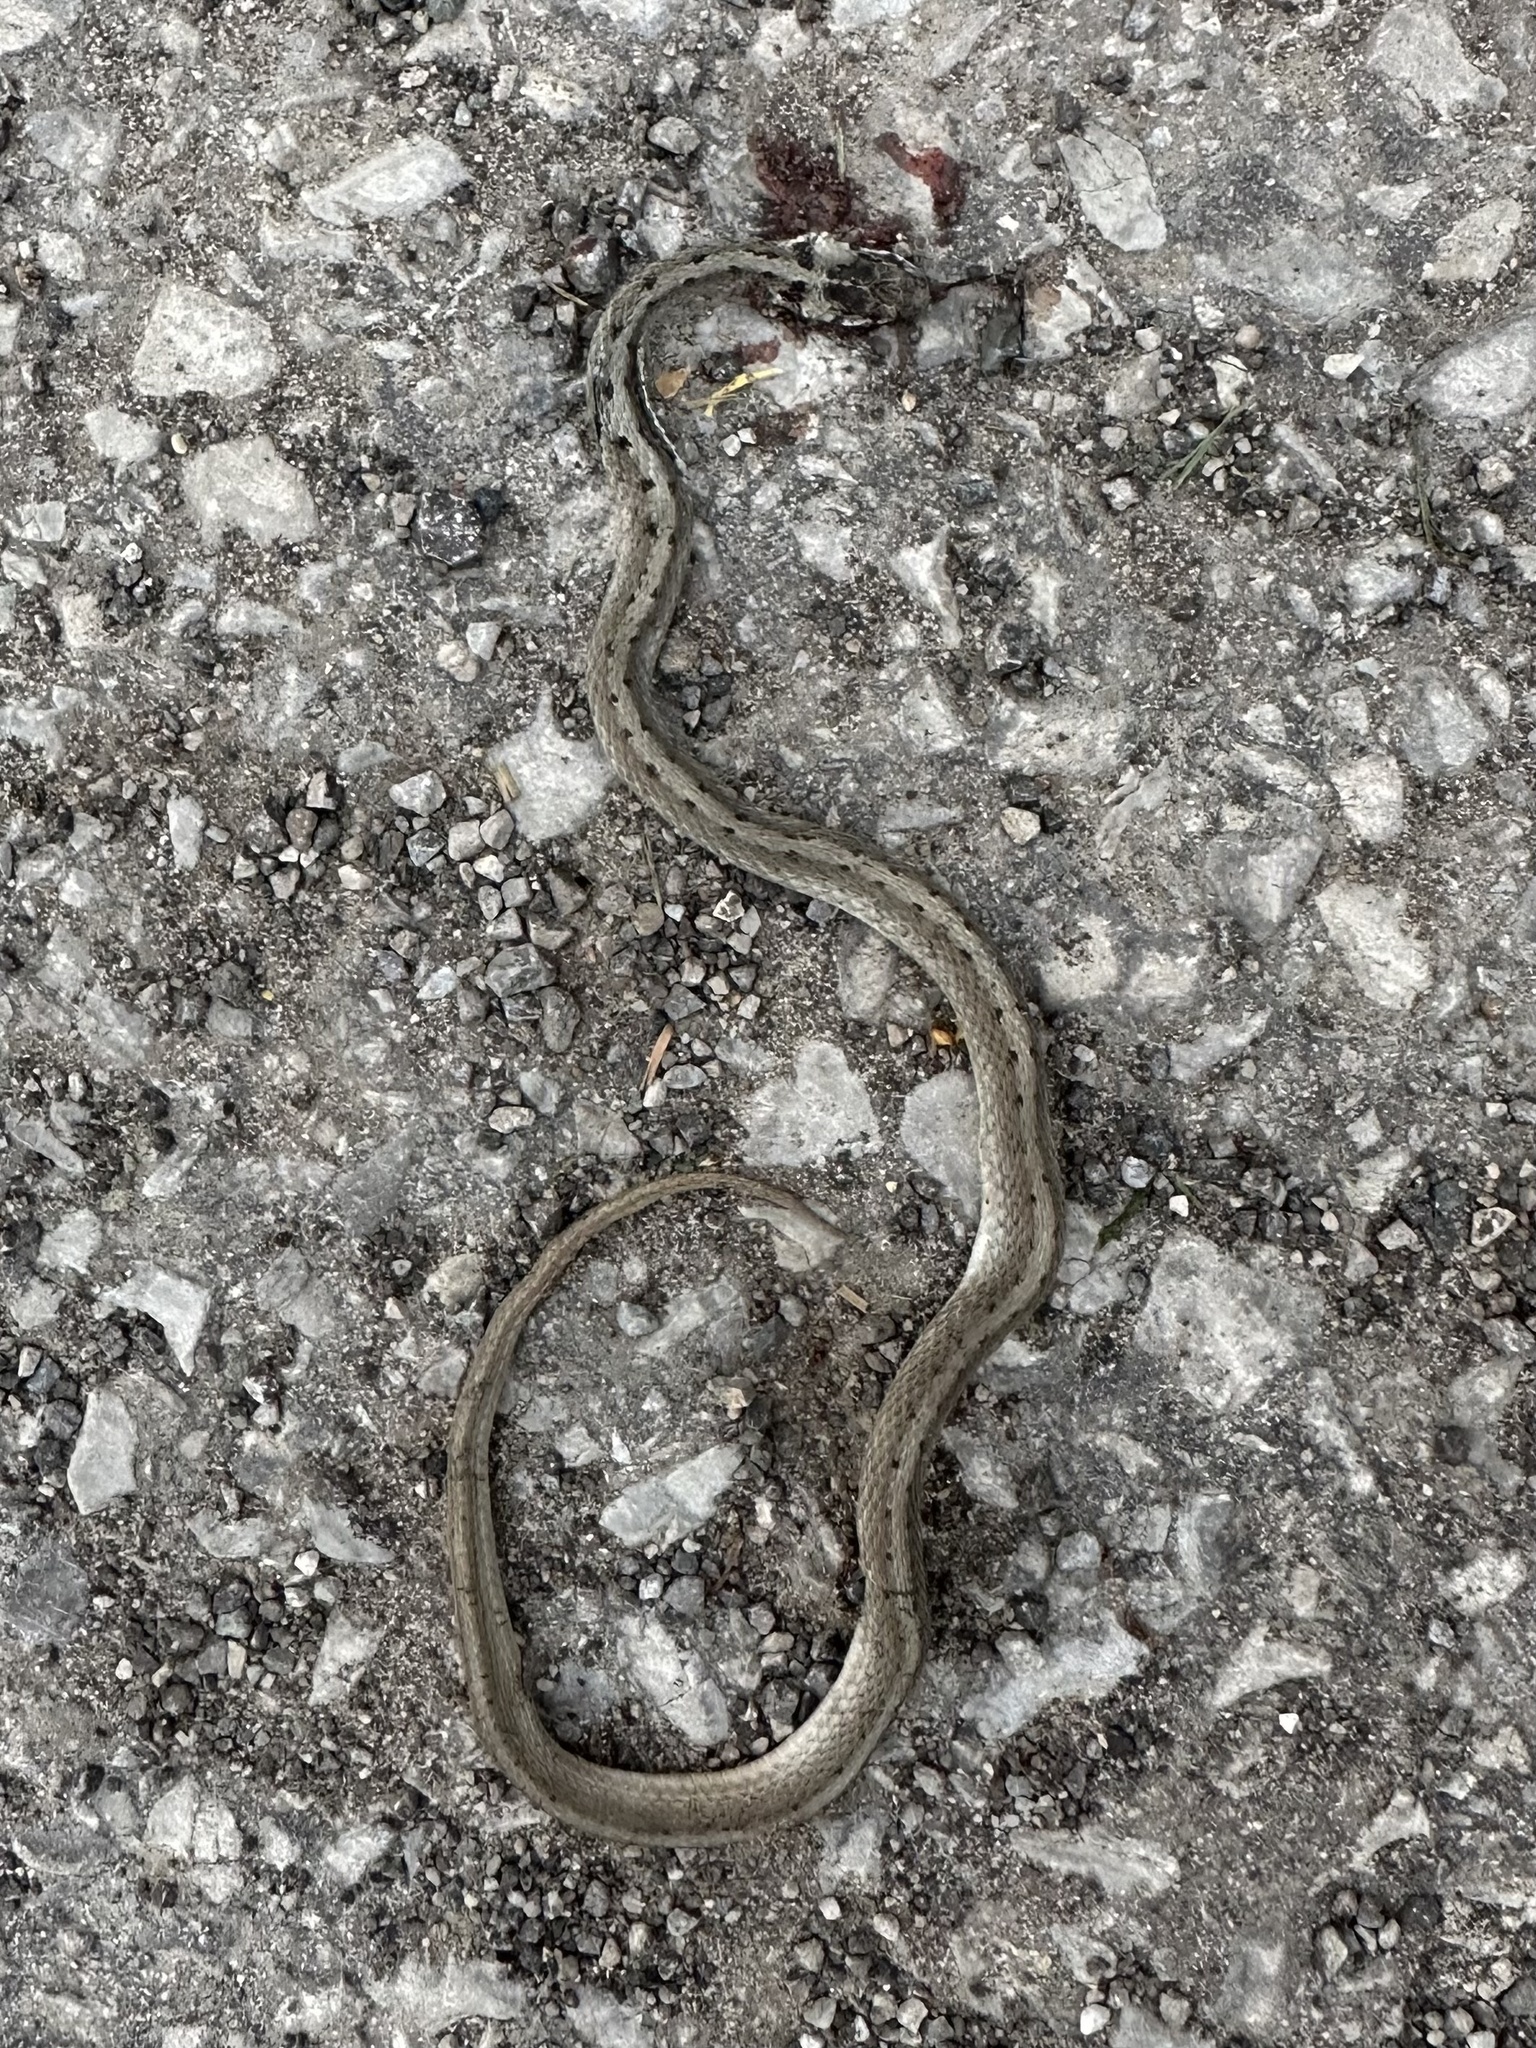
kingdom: Animalia
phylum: Chordata
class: Squamata
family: Colubridae
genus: Storeria
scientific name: Storeria dekayi
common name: (dekay’s) brown snake
